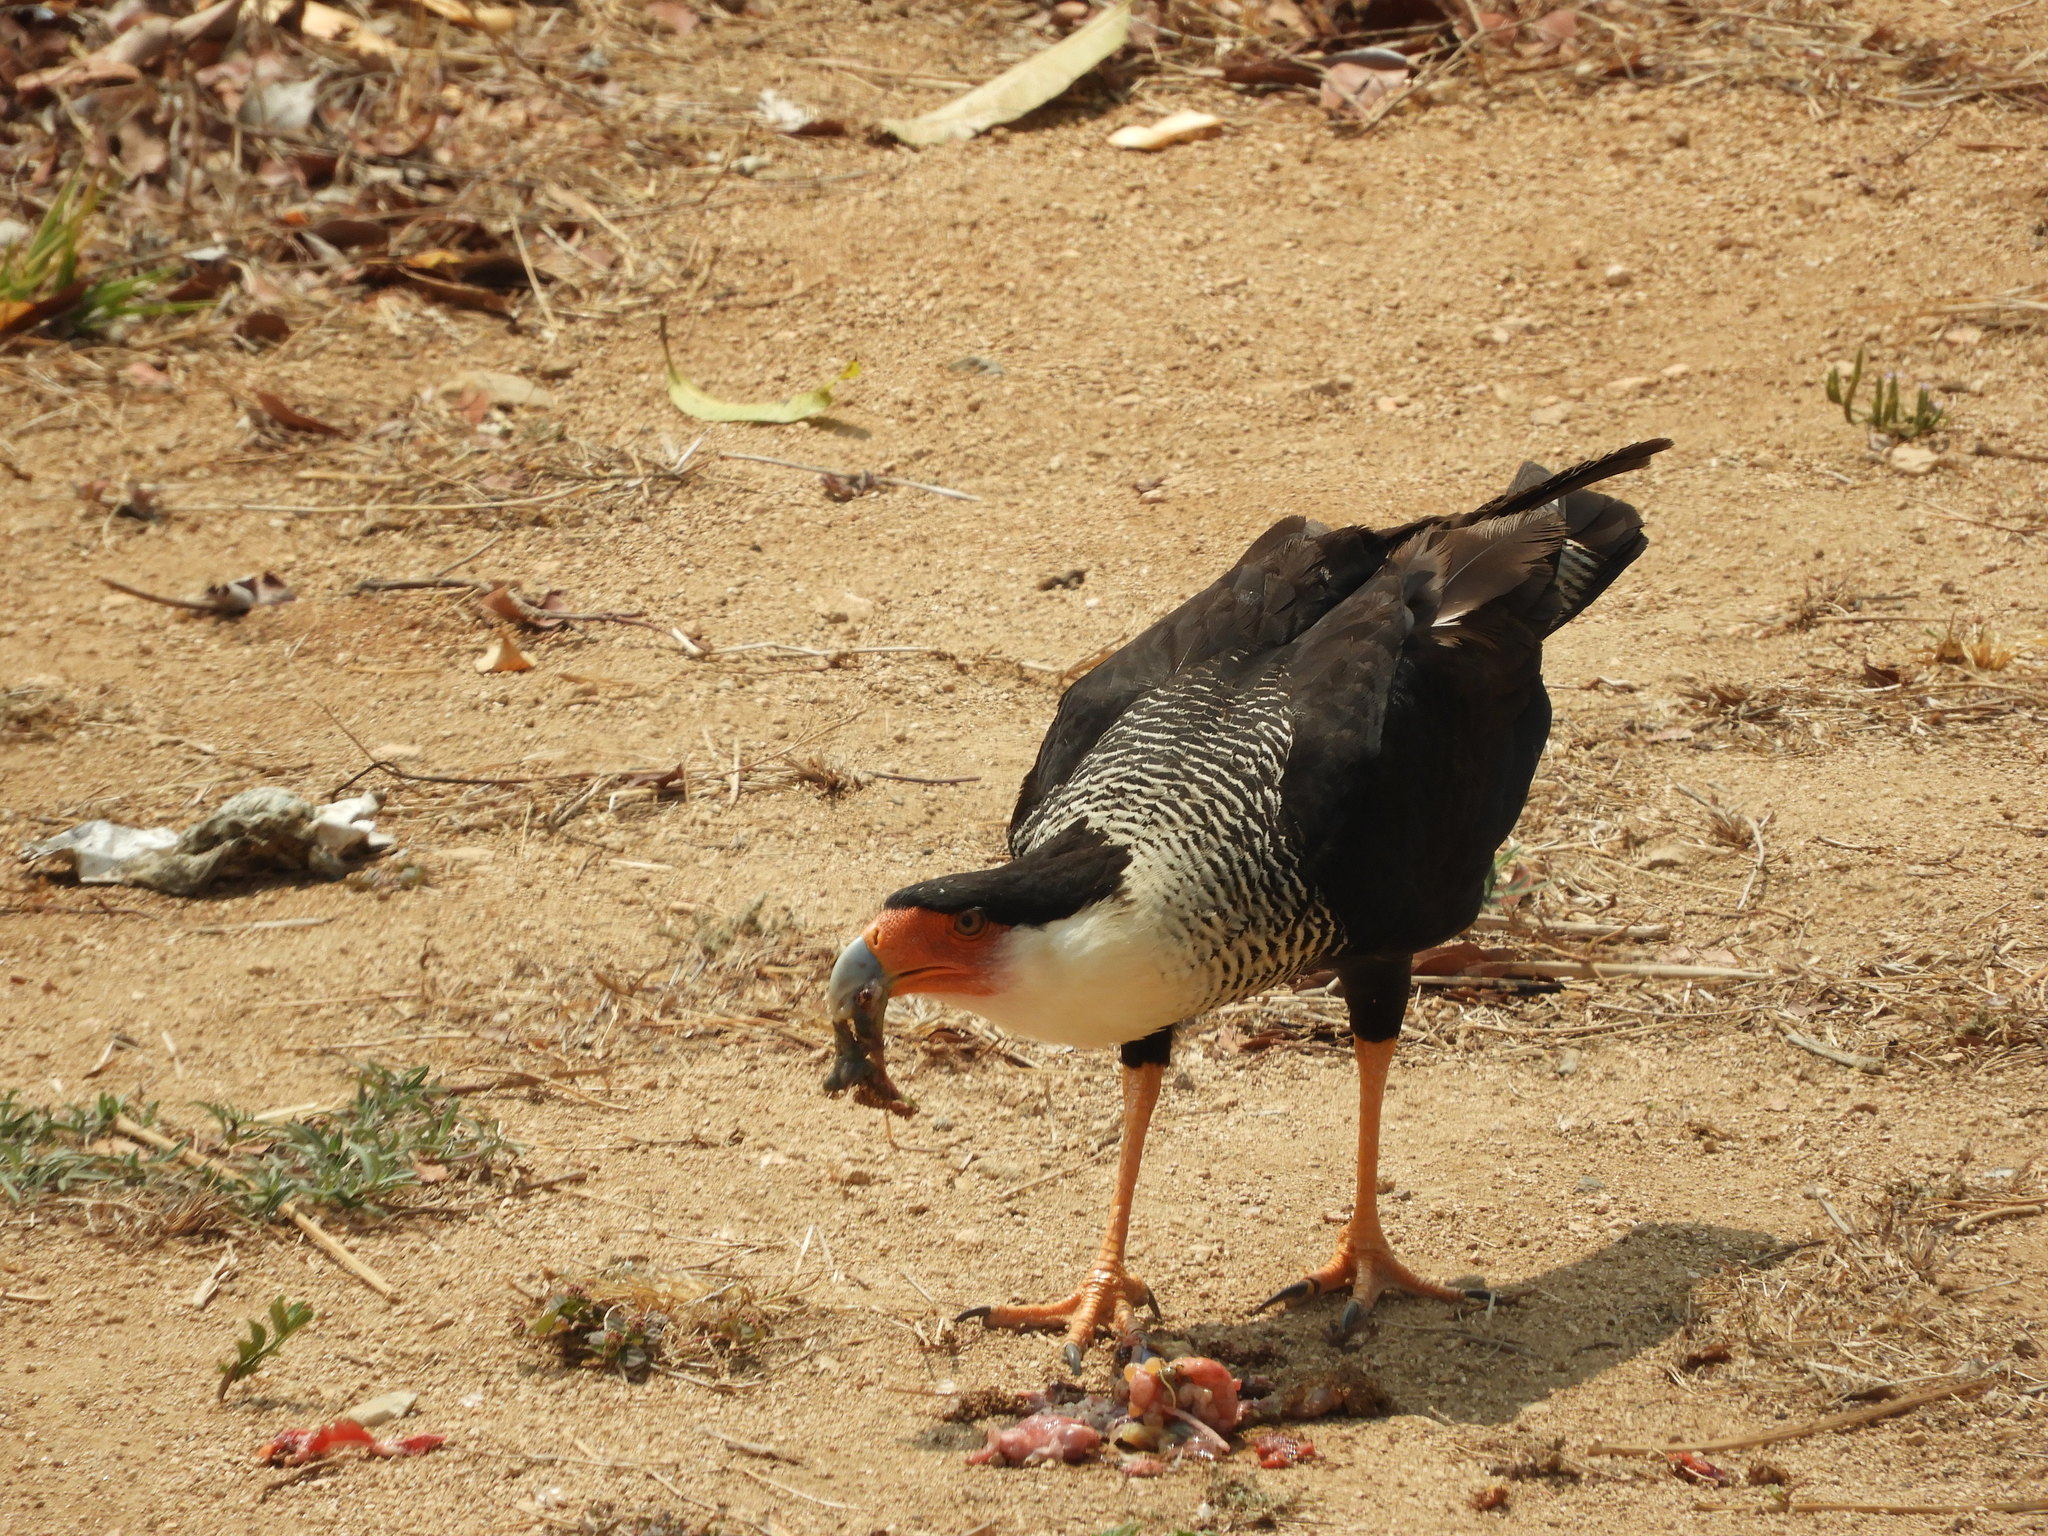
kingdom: Animalia
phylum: Chordata
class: Aves
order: Falconiformes
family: Falconidae
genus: Caracara
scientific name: Caracara plancus
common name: Southern caracara
